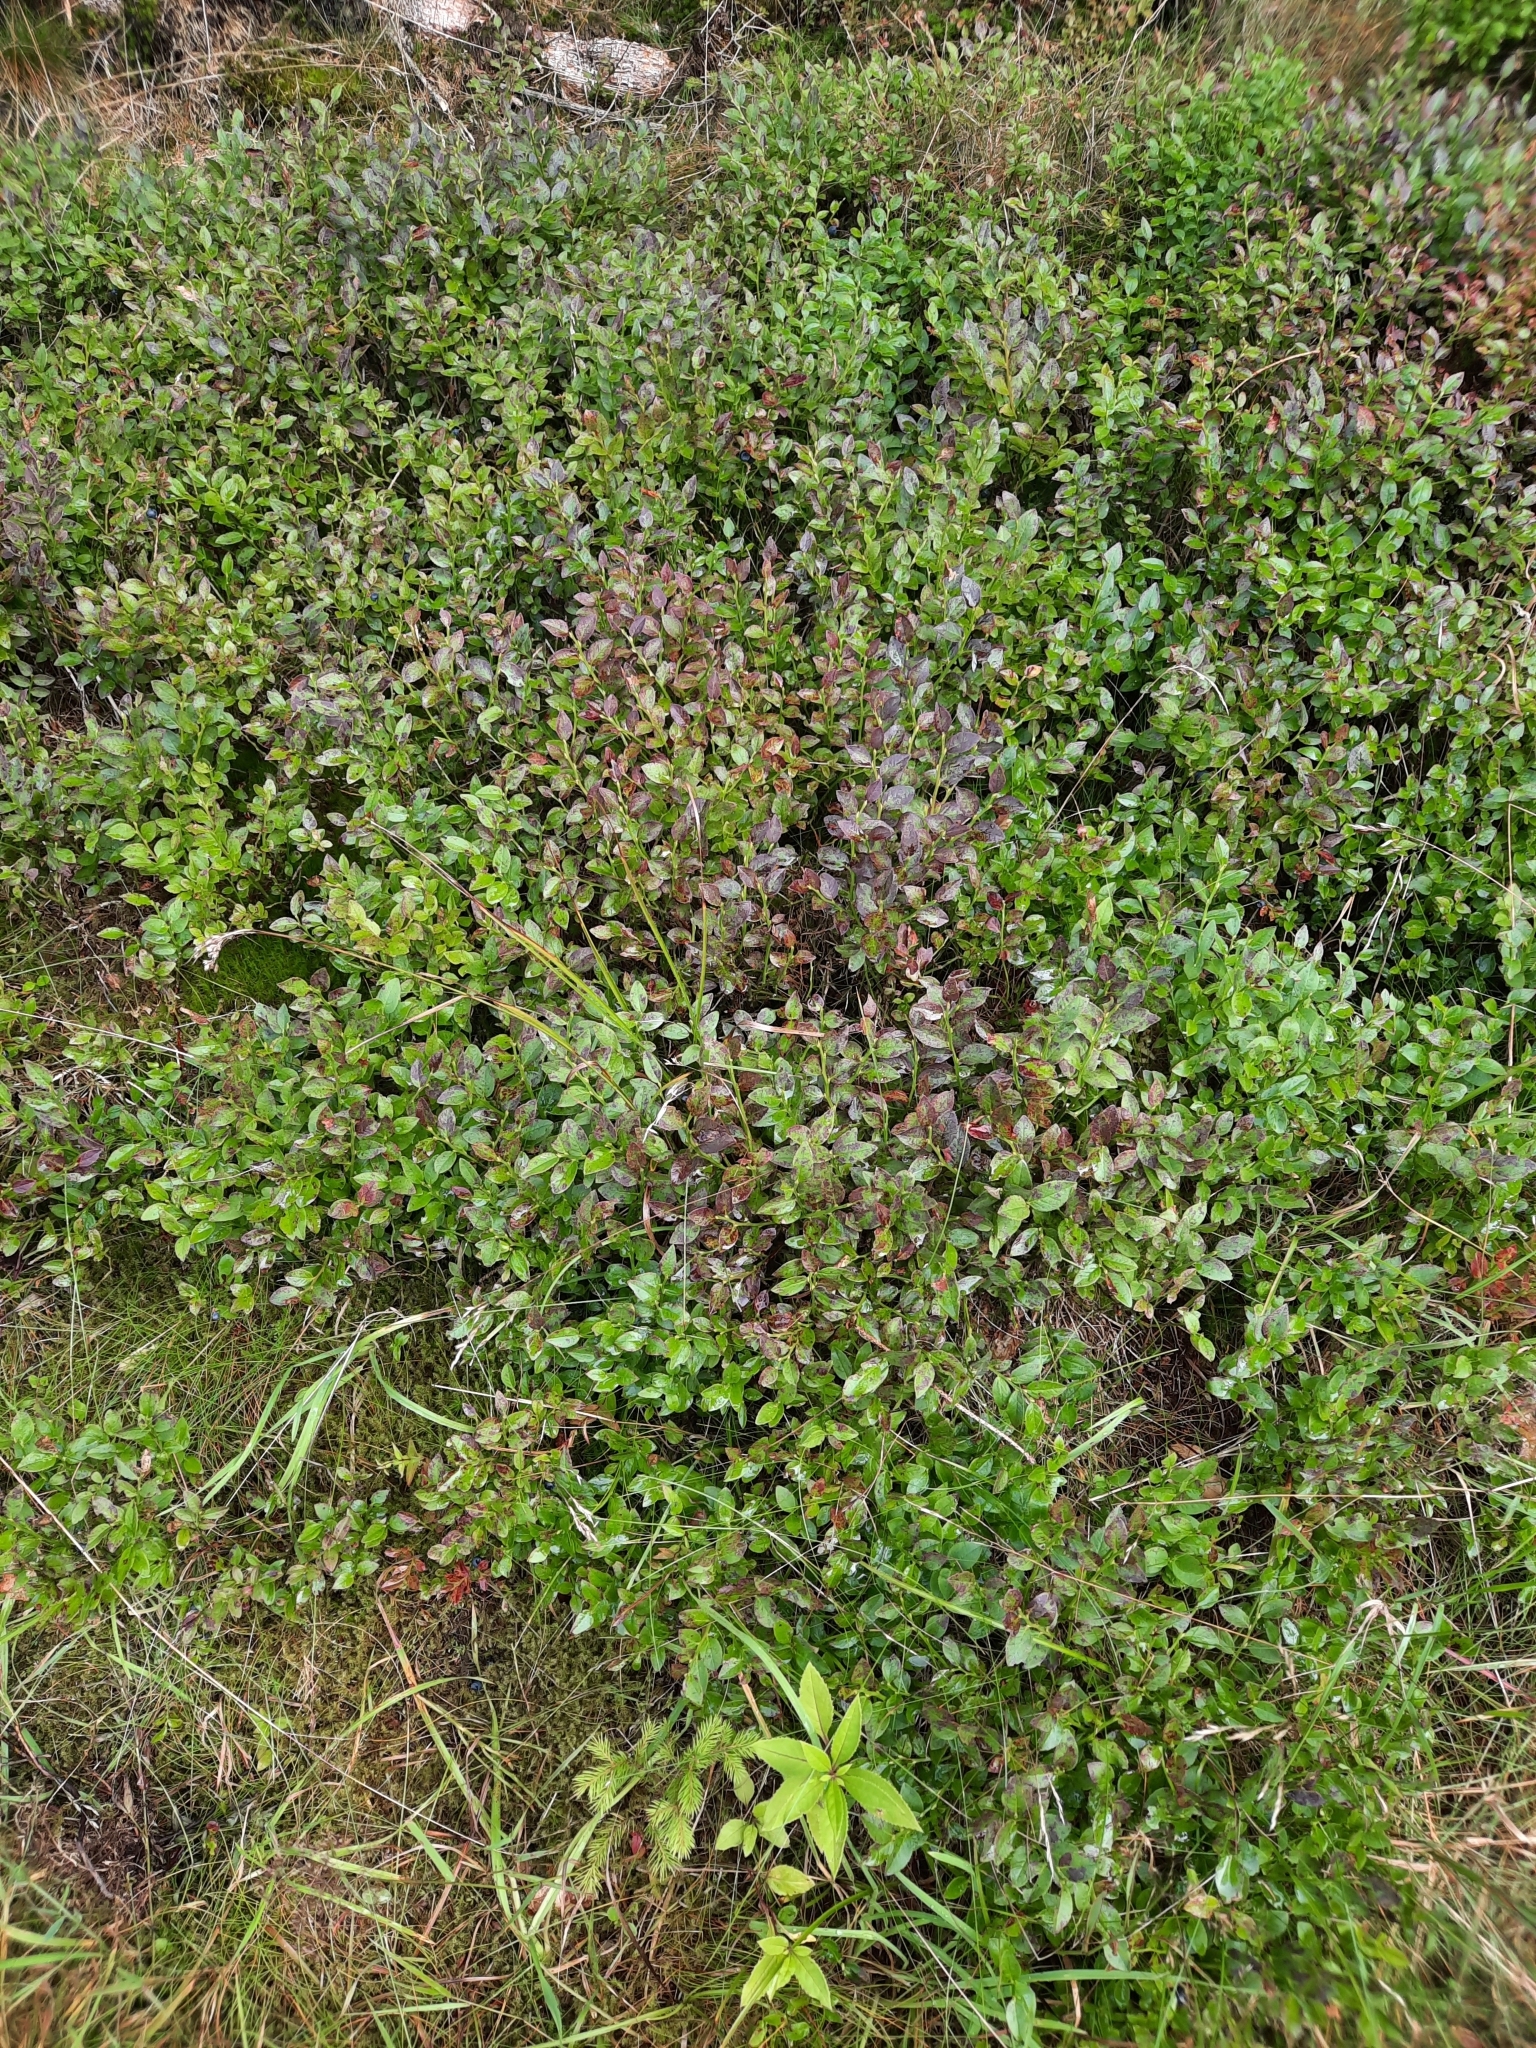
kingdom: Plantae
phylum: Tracheophyta
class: Magnoliopsida
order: Ericales
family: Ericaceae
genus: Vaccinium
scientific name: Vaccinium myrtillus
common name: Bilberry
